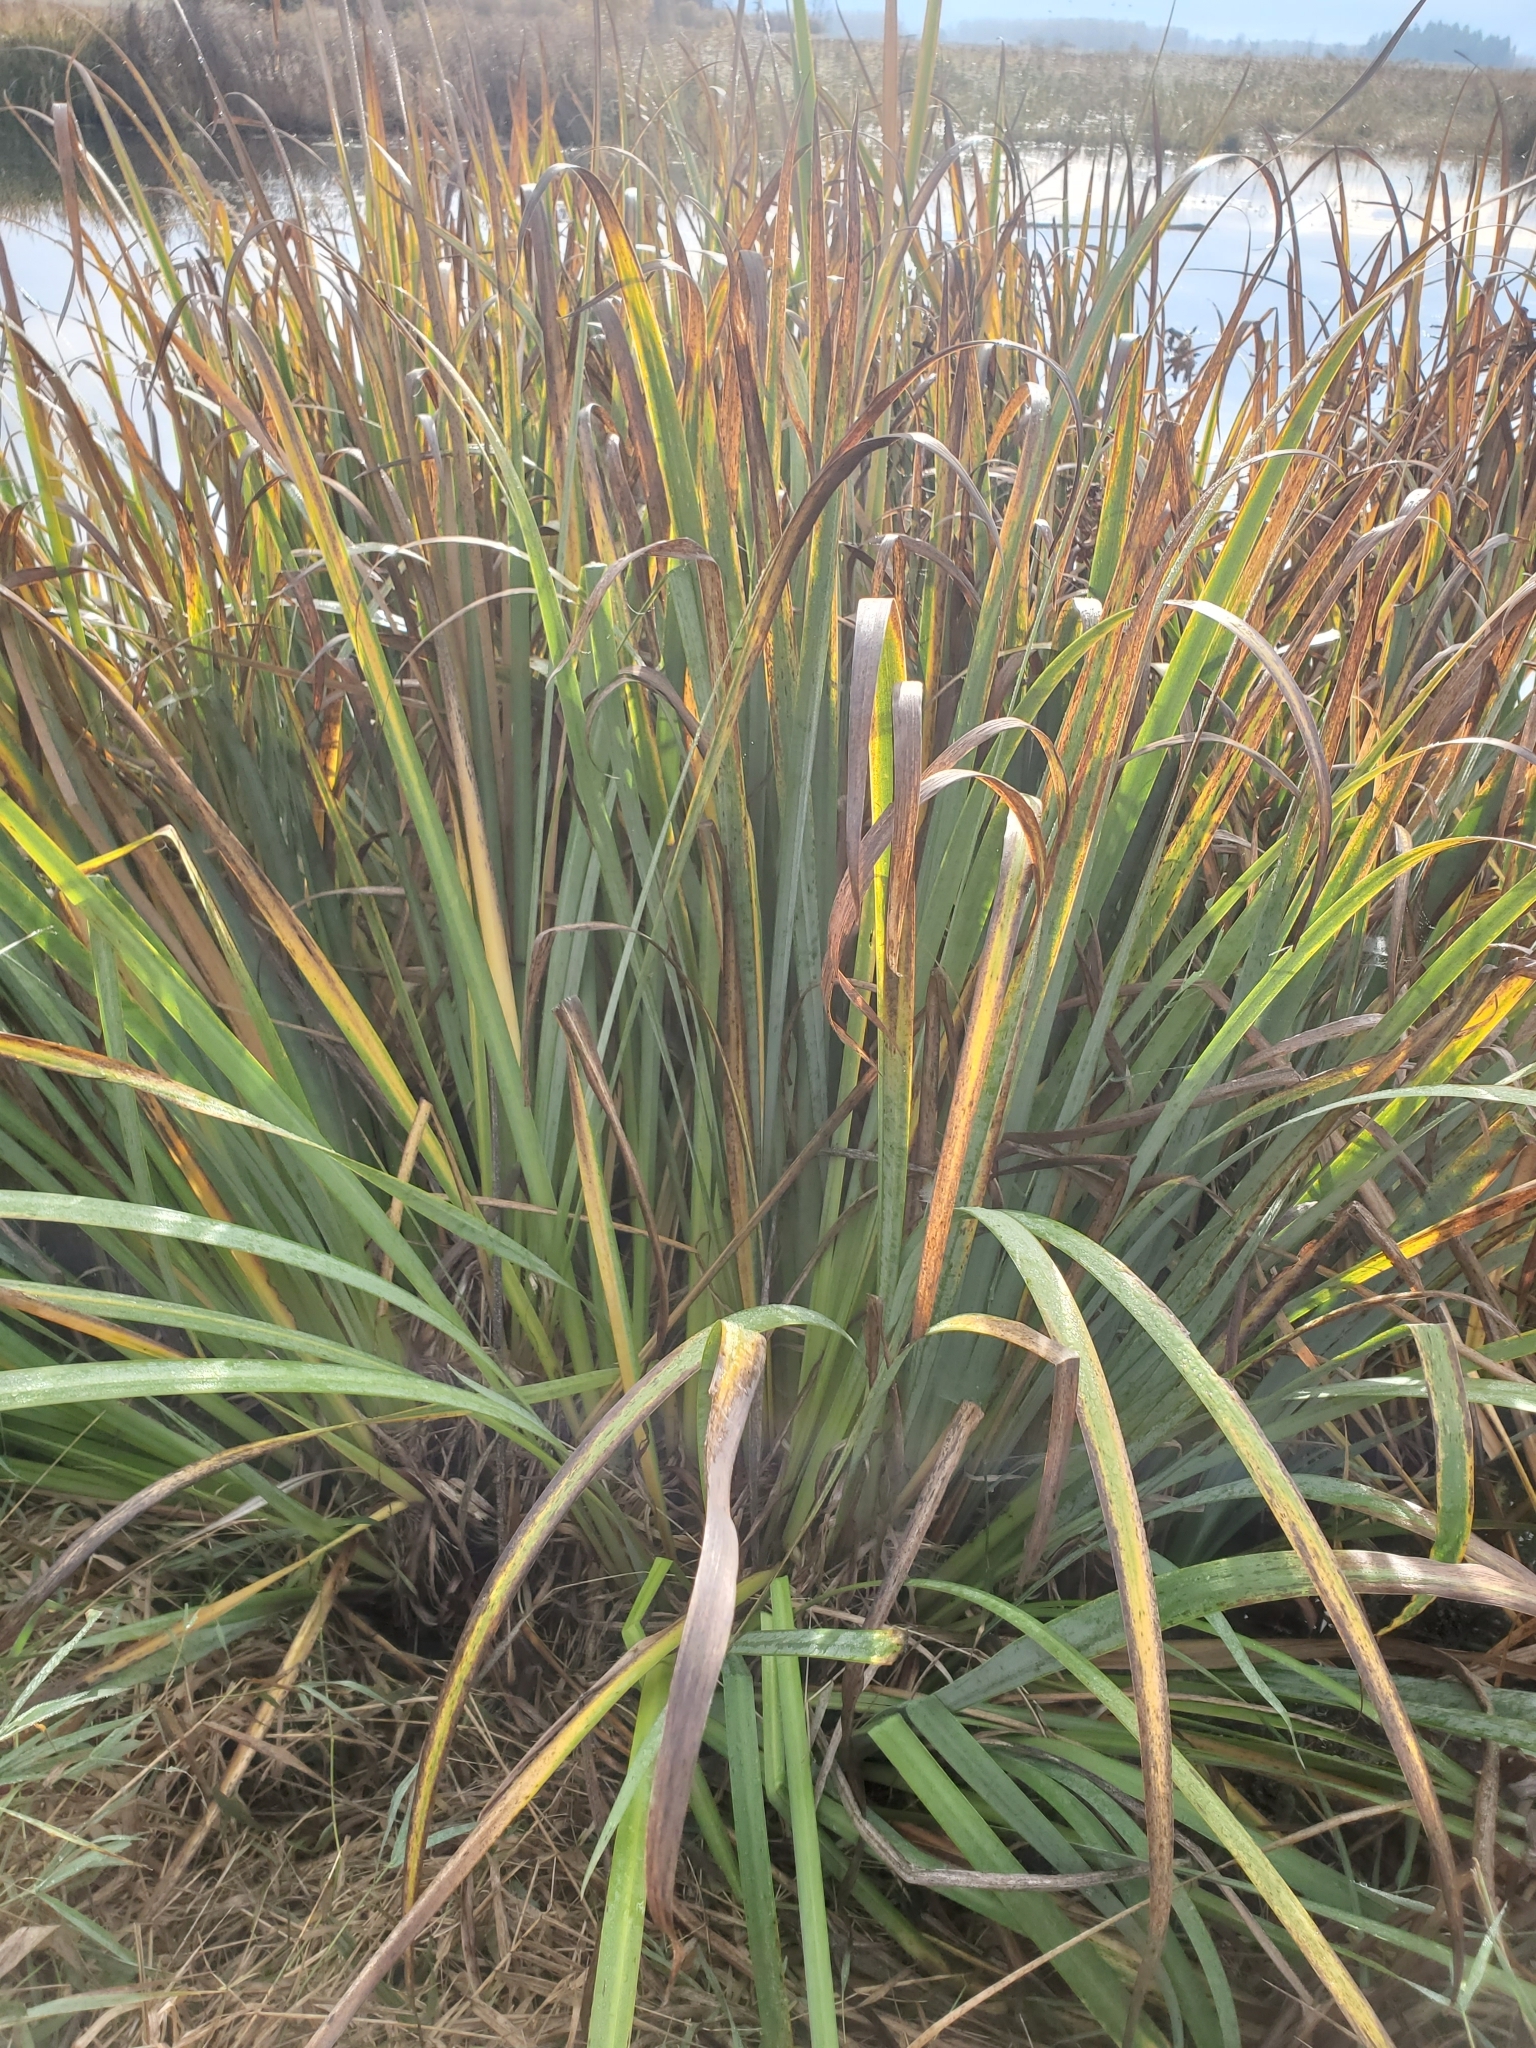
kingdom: Plantae
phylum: Tracheophyta
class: Liliopsida
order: Asparagales
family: Iridaceae
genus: Iris
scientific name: Iris pseudacorus
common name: Yellow flag
